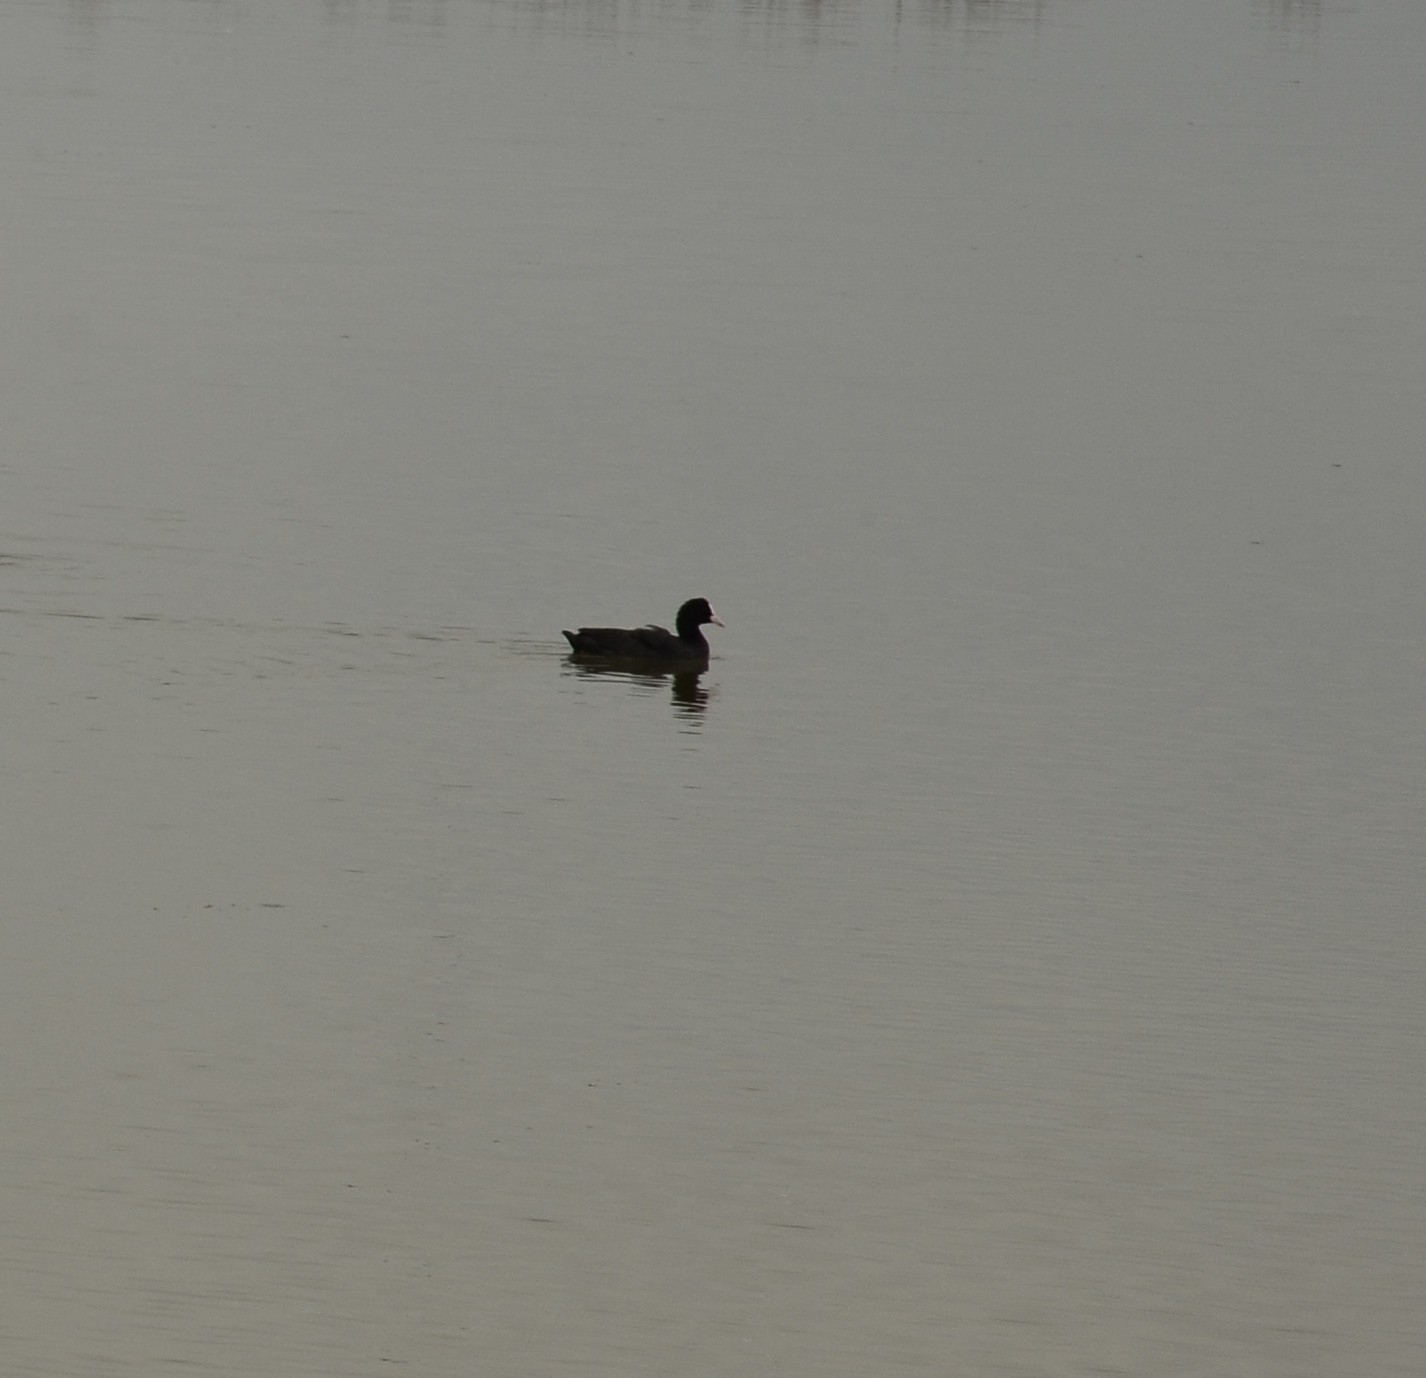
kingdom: Animalia
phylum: Chordata
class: Aves
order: Gruiformes
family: Rallidae
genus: Fulica
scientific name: Fulica atra
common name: Eurasian coot
